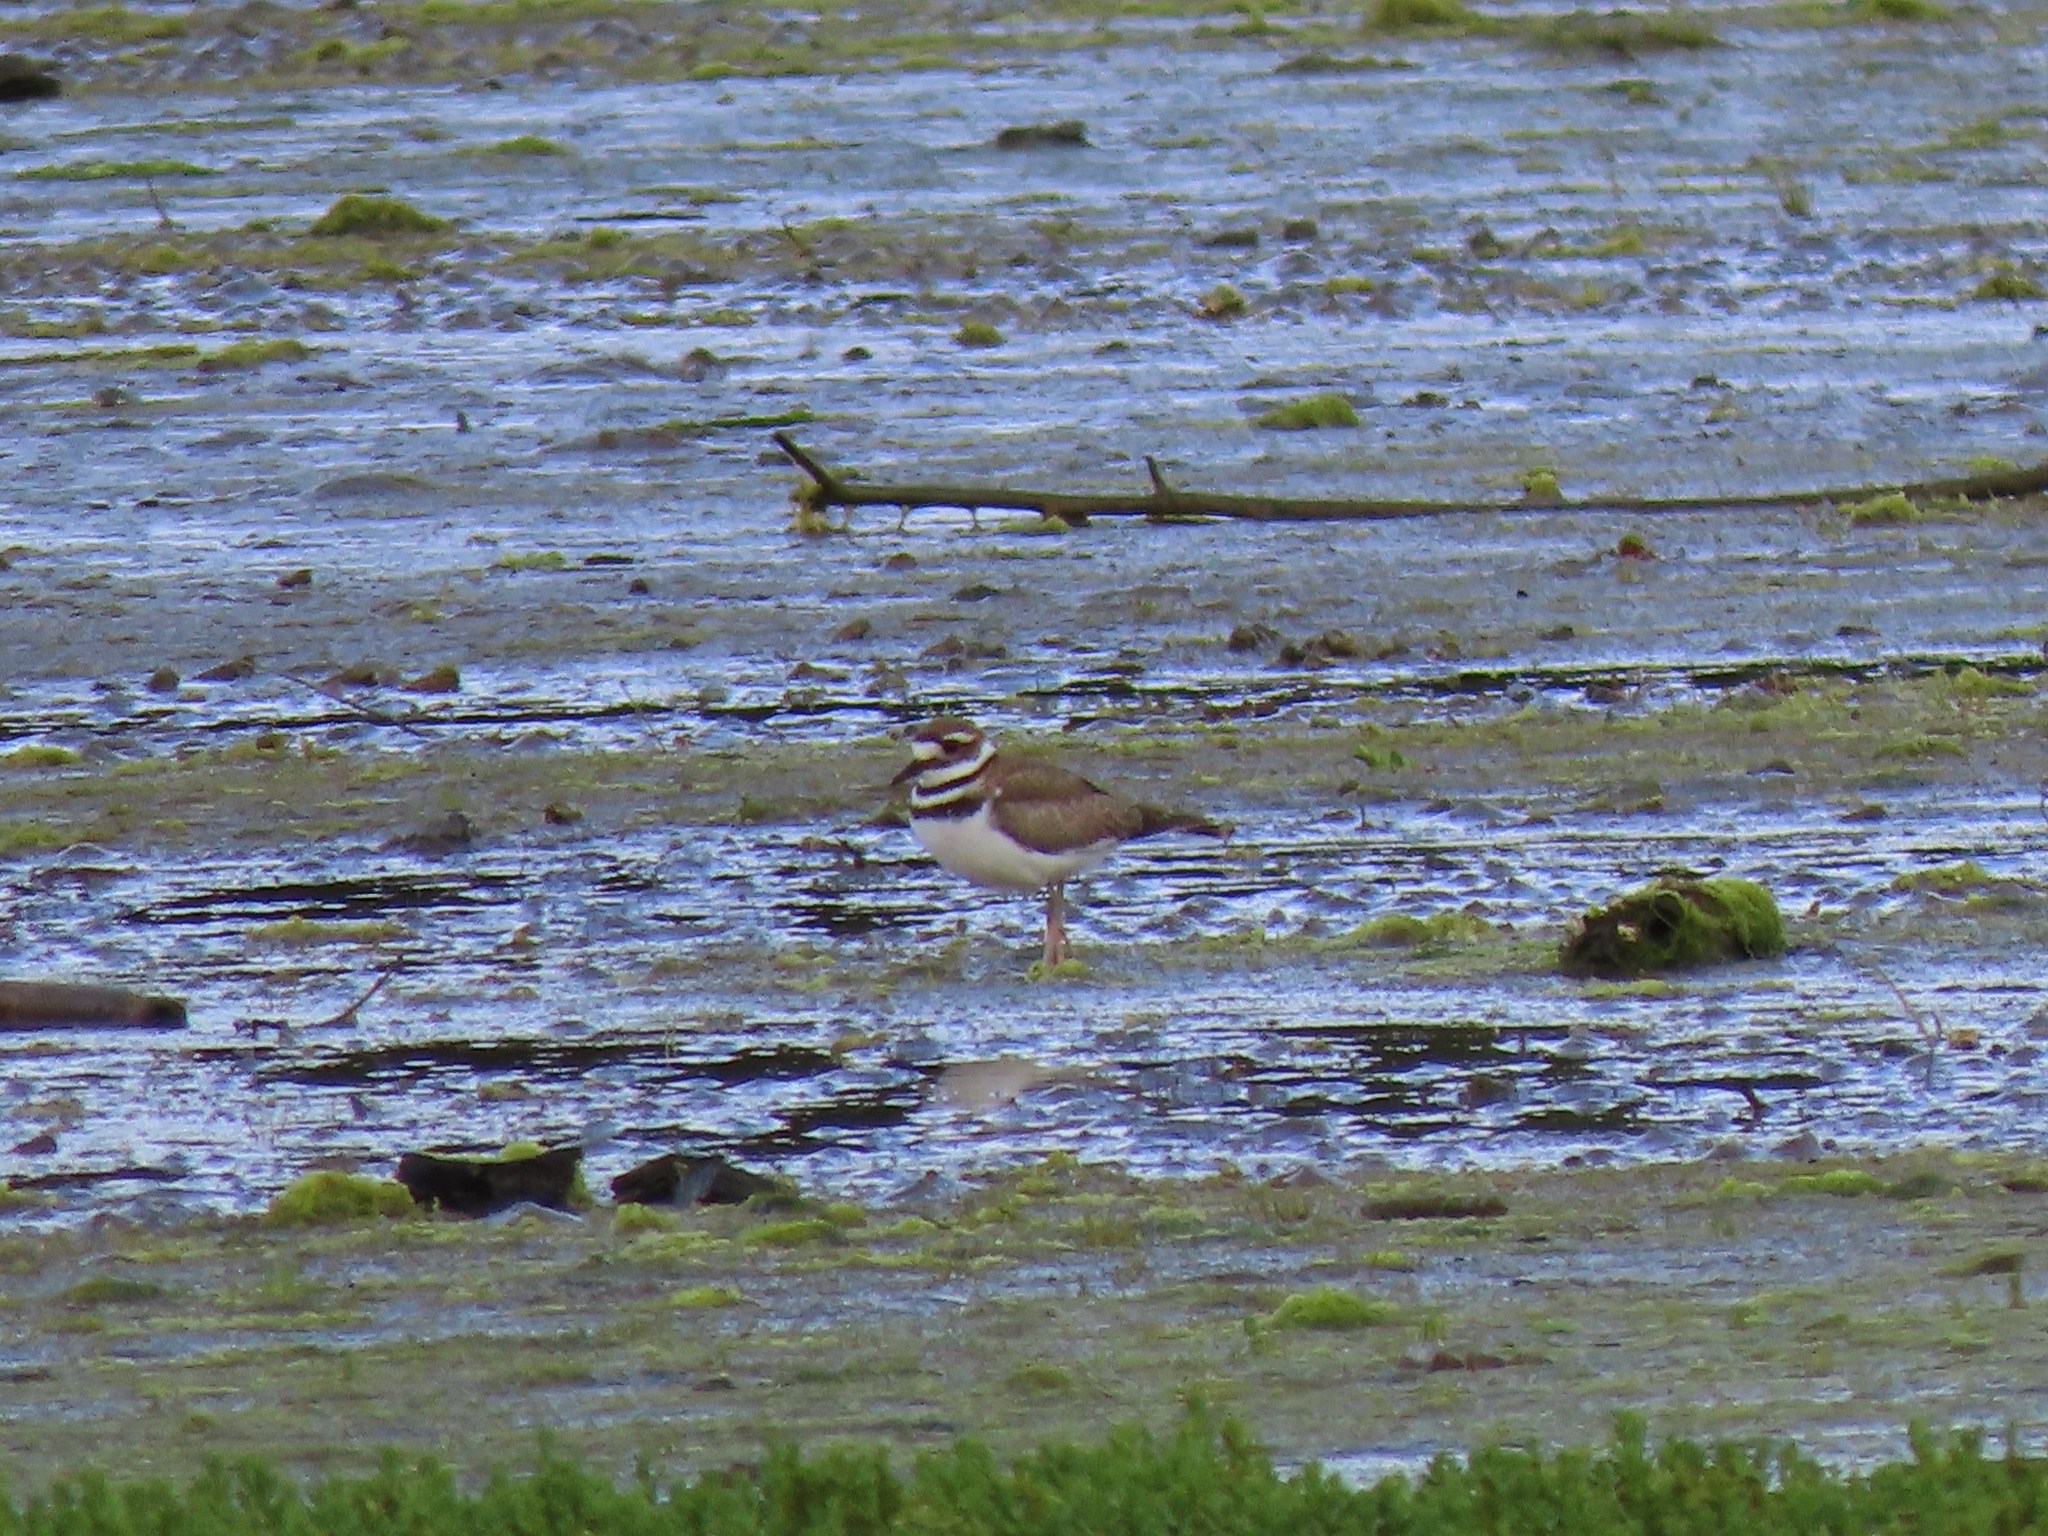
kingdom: Animalia
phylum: Chordata
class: Aves
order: Charadriiformes
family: Charadriidae
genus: Charadrius
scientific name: Charadrius vociferus
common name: Killdeer
